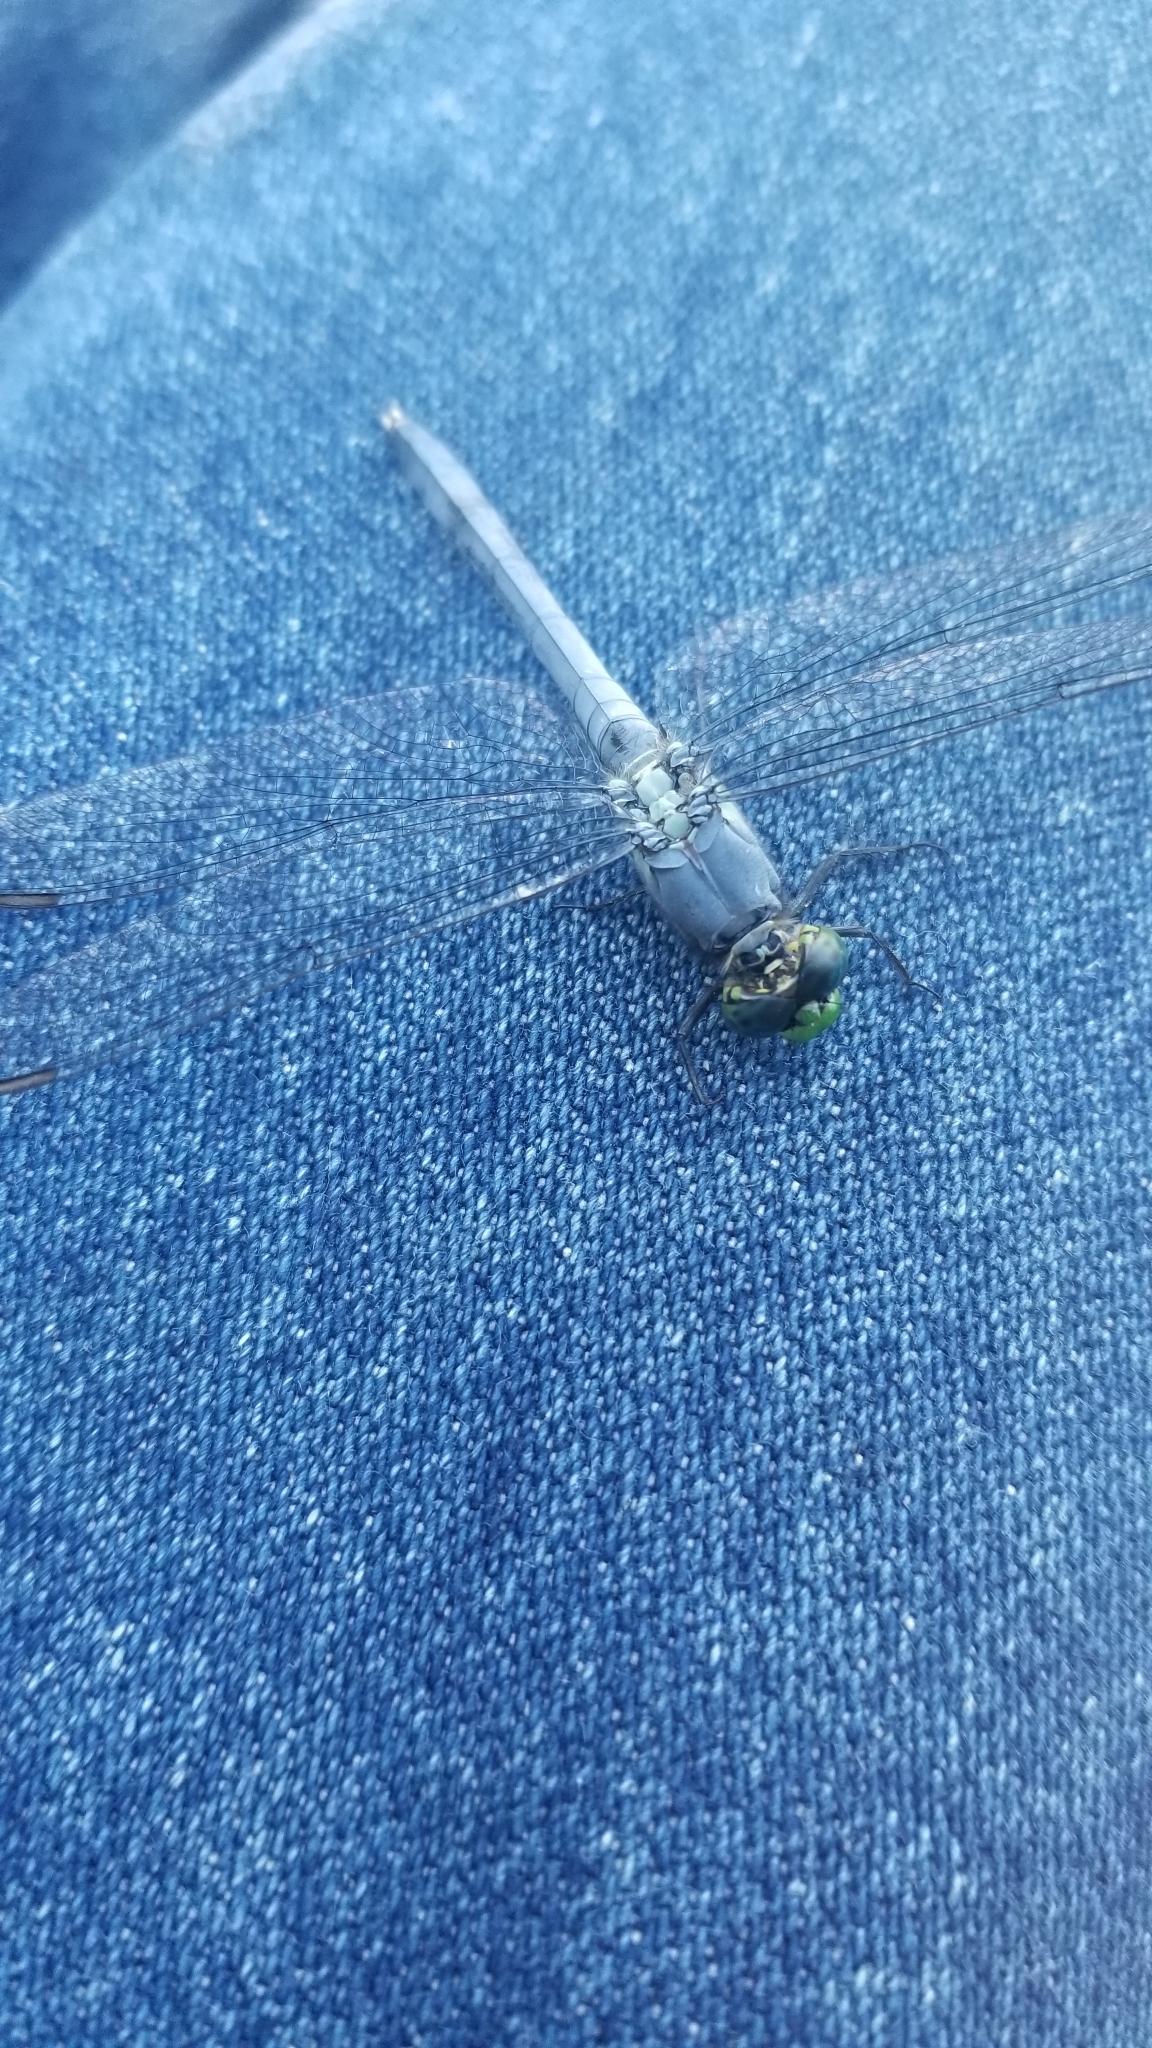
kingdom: Animalia
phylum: Arthropoda
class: Insecta
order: Odonata
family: Libellulidae
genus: Erythemis
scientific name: Erythemis simplicicollis
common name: Eastern pondhawk
